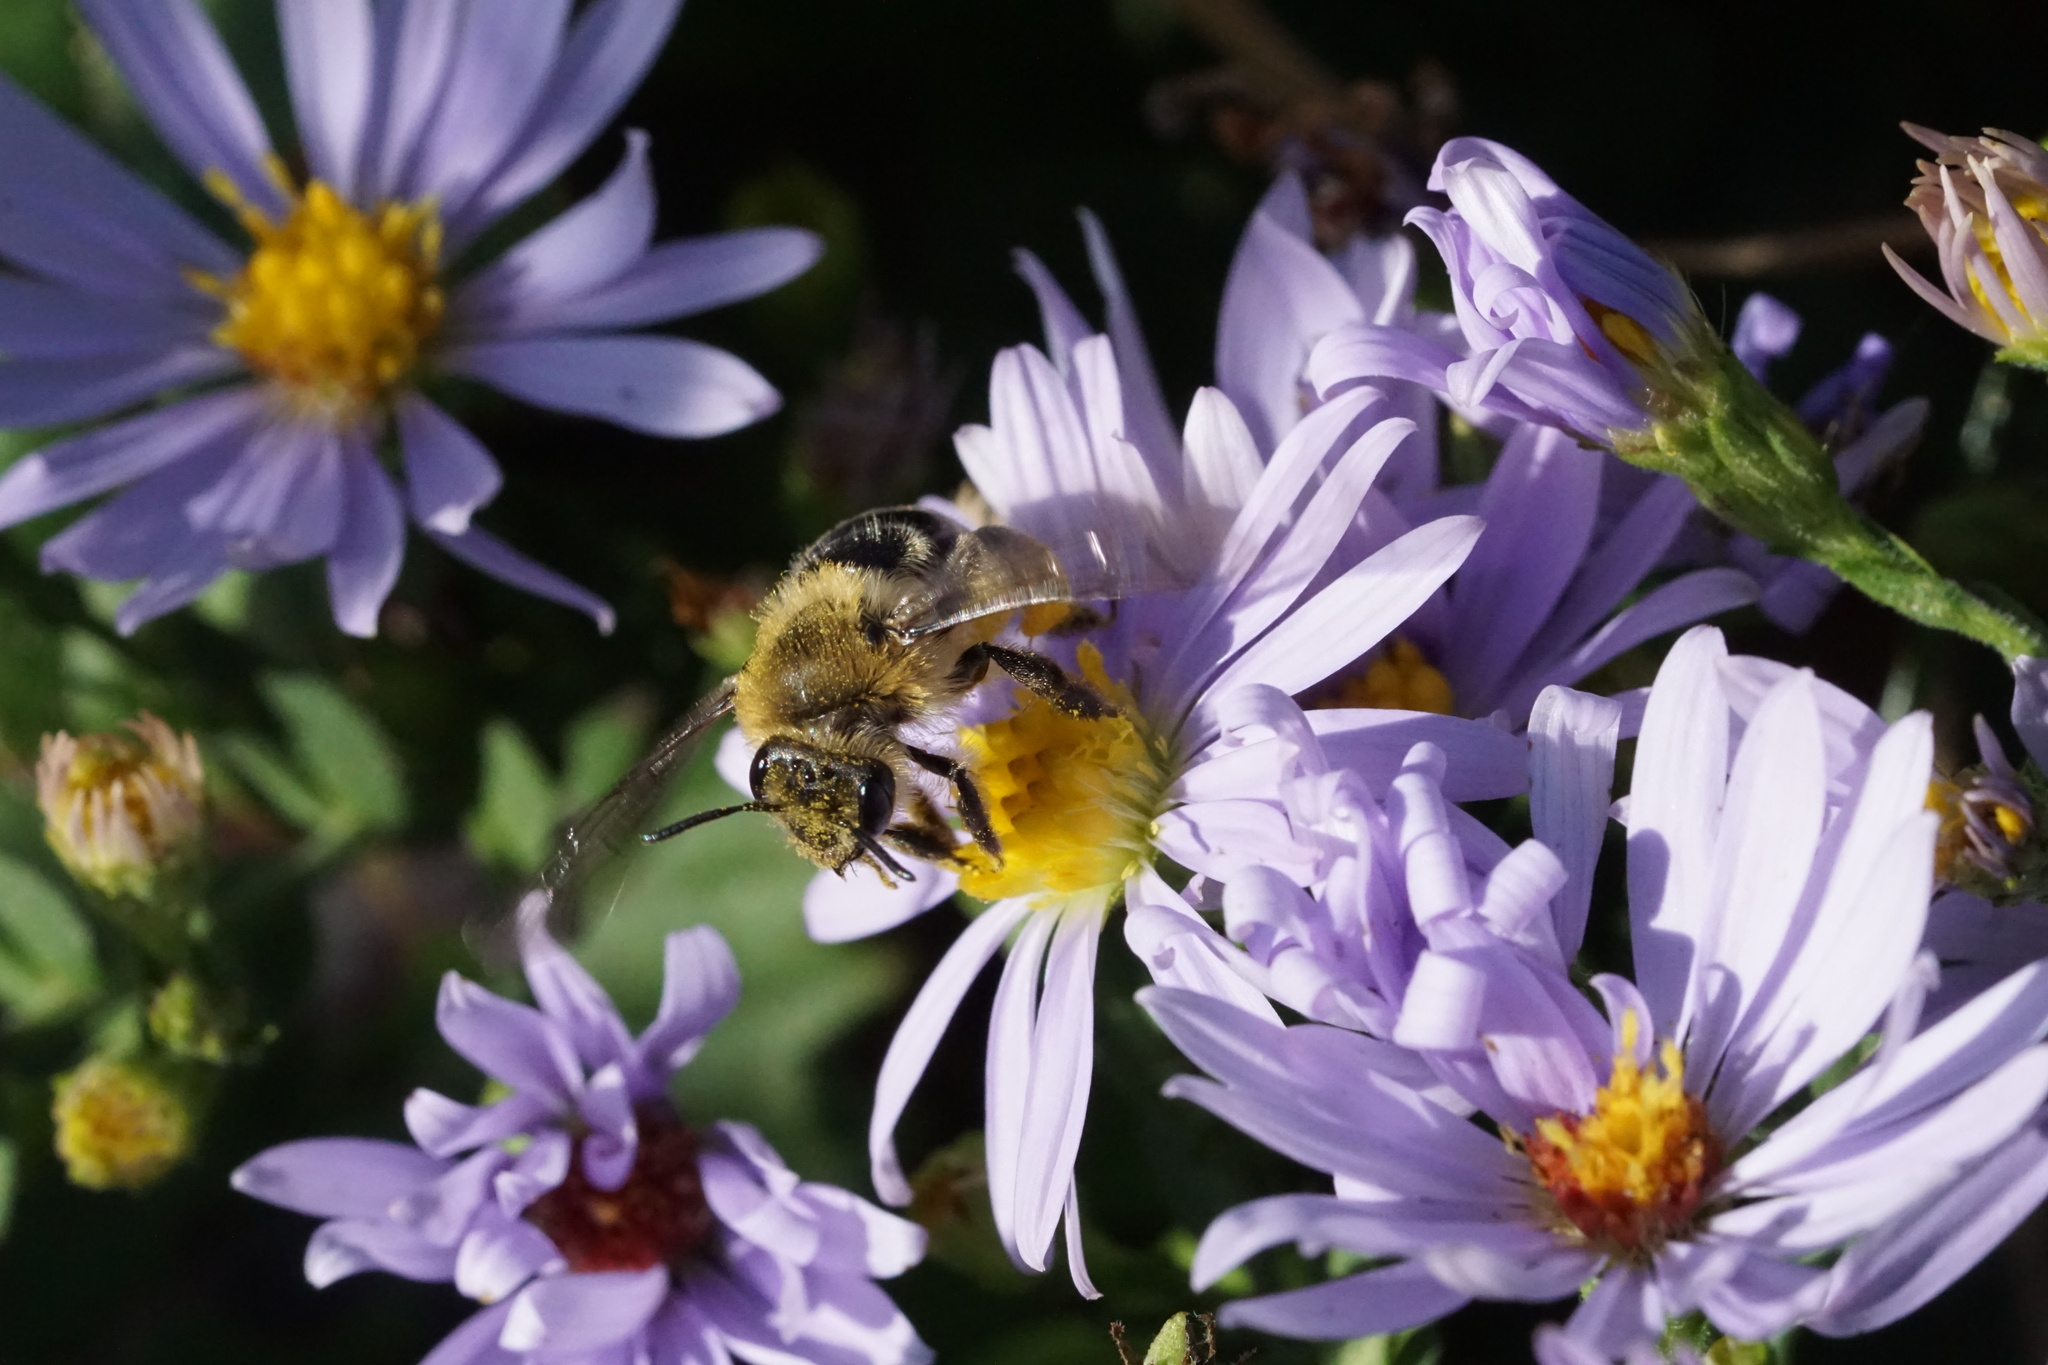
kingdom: Animalia
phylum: Arthropoda
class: Insecta
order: Hymenoptera
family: Andrenidae
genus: Andrena
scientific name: Andrena asteris
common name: Aster mining bee
